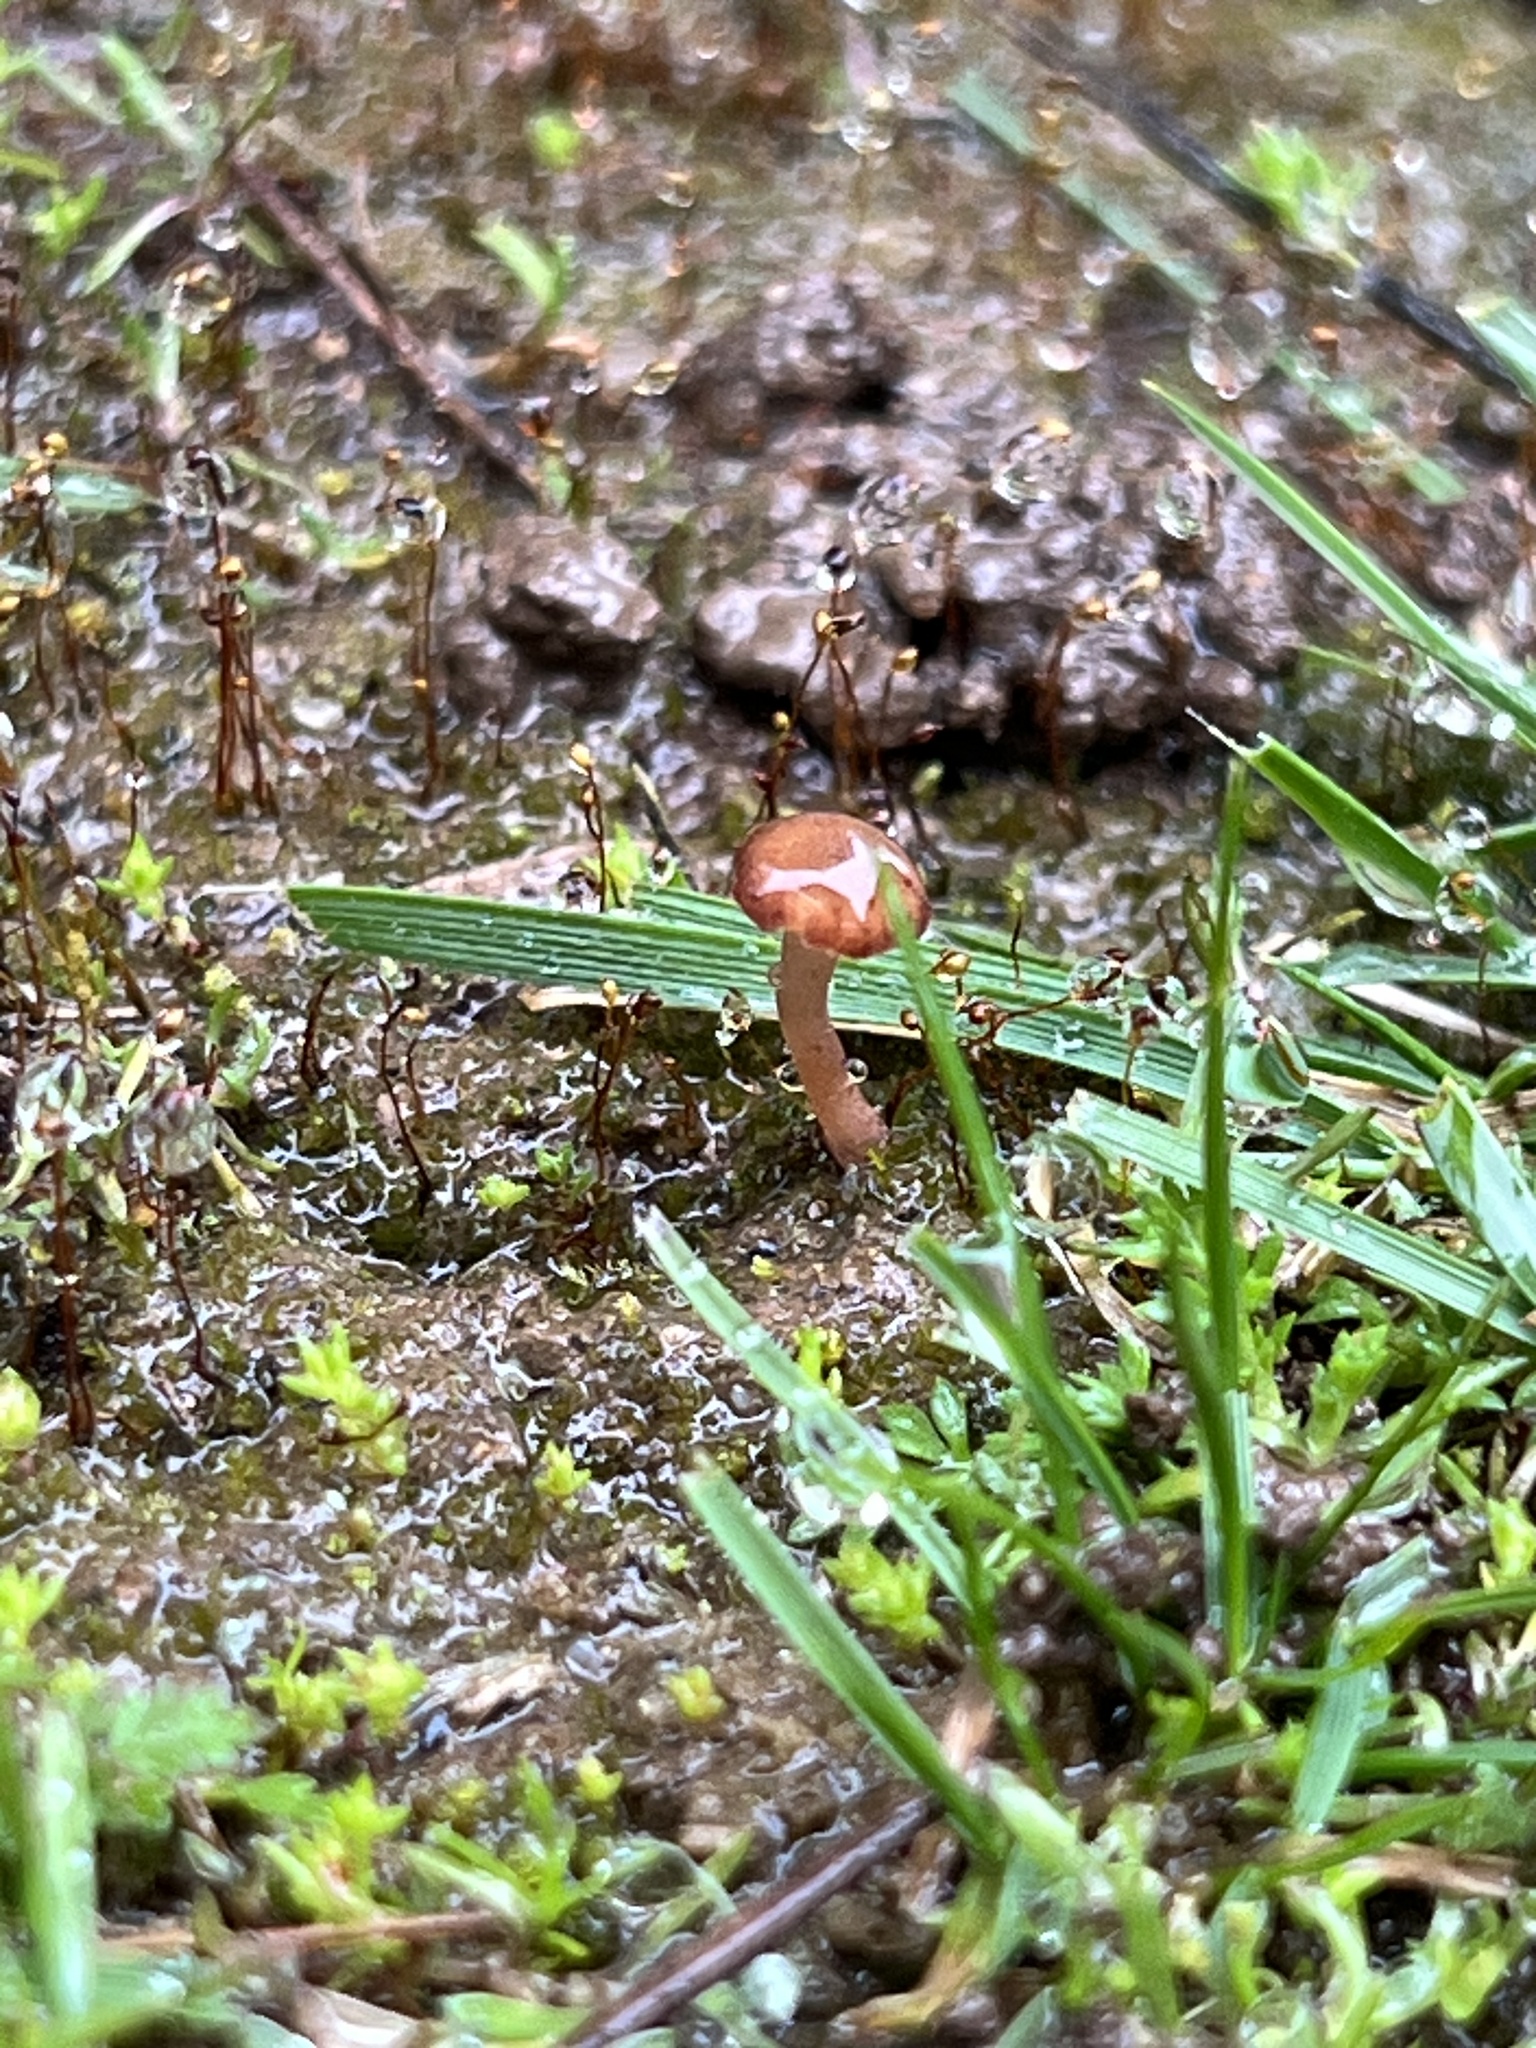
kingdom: Fungi
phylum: Basidiomycota
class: Agaricomycetes
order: Hymenochaetales
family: Rickenellaceae
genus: Contumyces
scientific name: Contumyces rosellus
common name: Rosy navel
